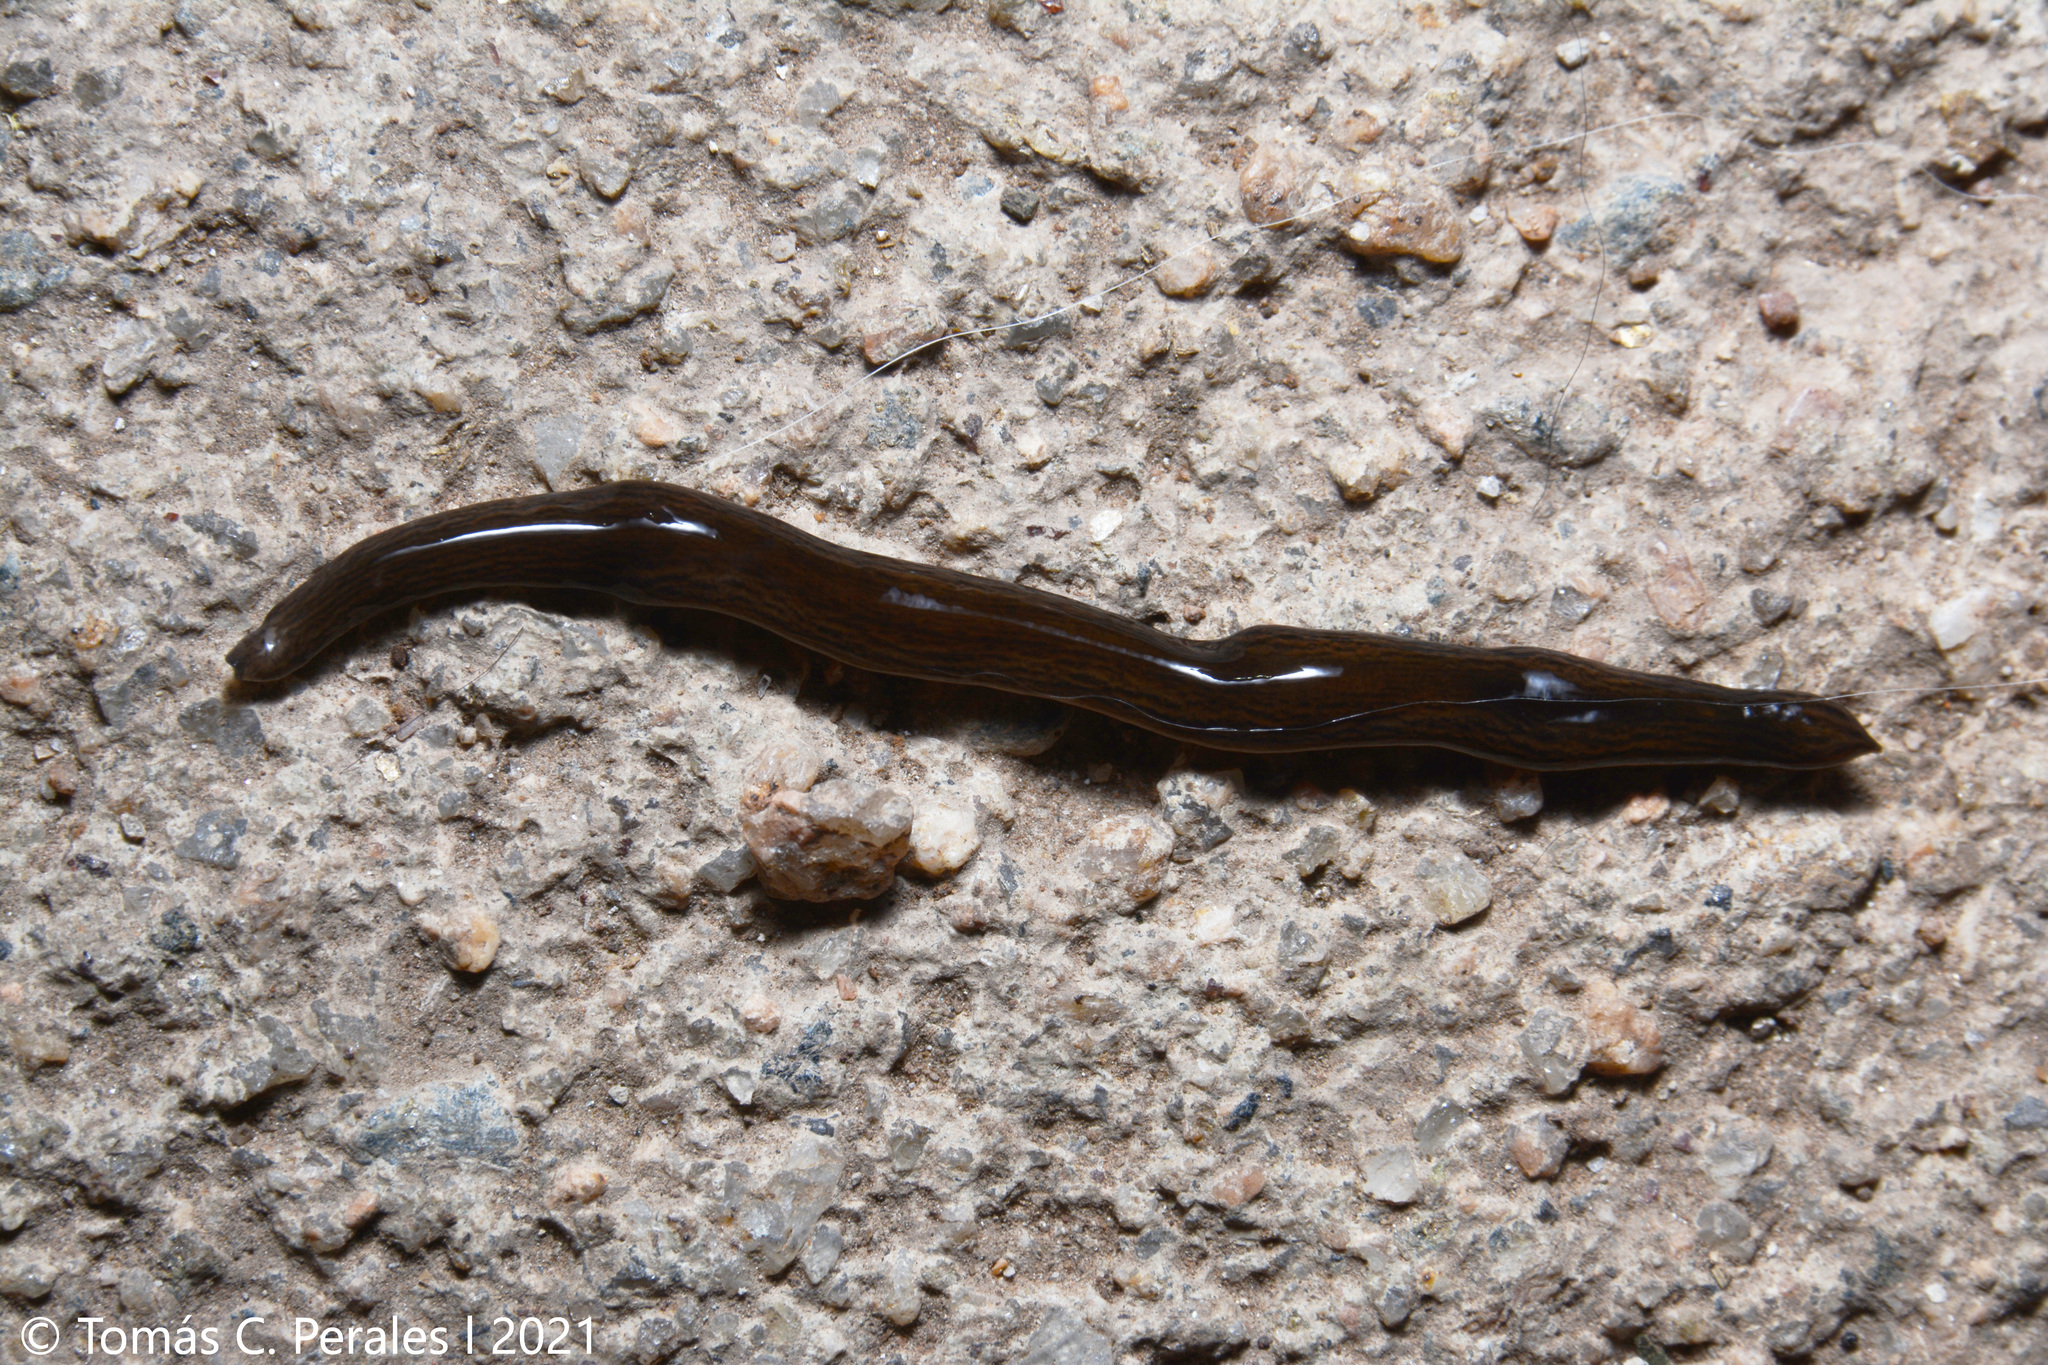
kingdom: Animalia
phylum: Platyhelminthes
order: Tricladida
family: Geoplanidae
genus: Obama
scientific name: Obama nungara
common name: Obama flatworm
